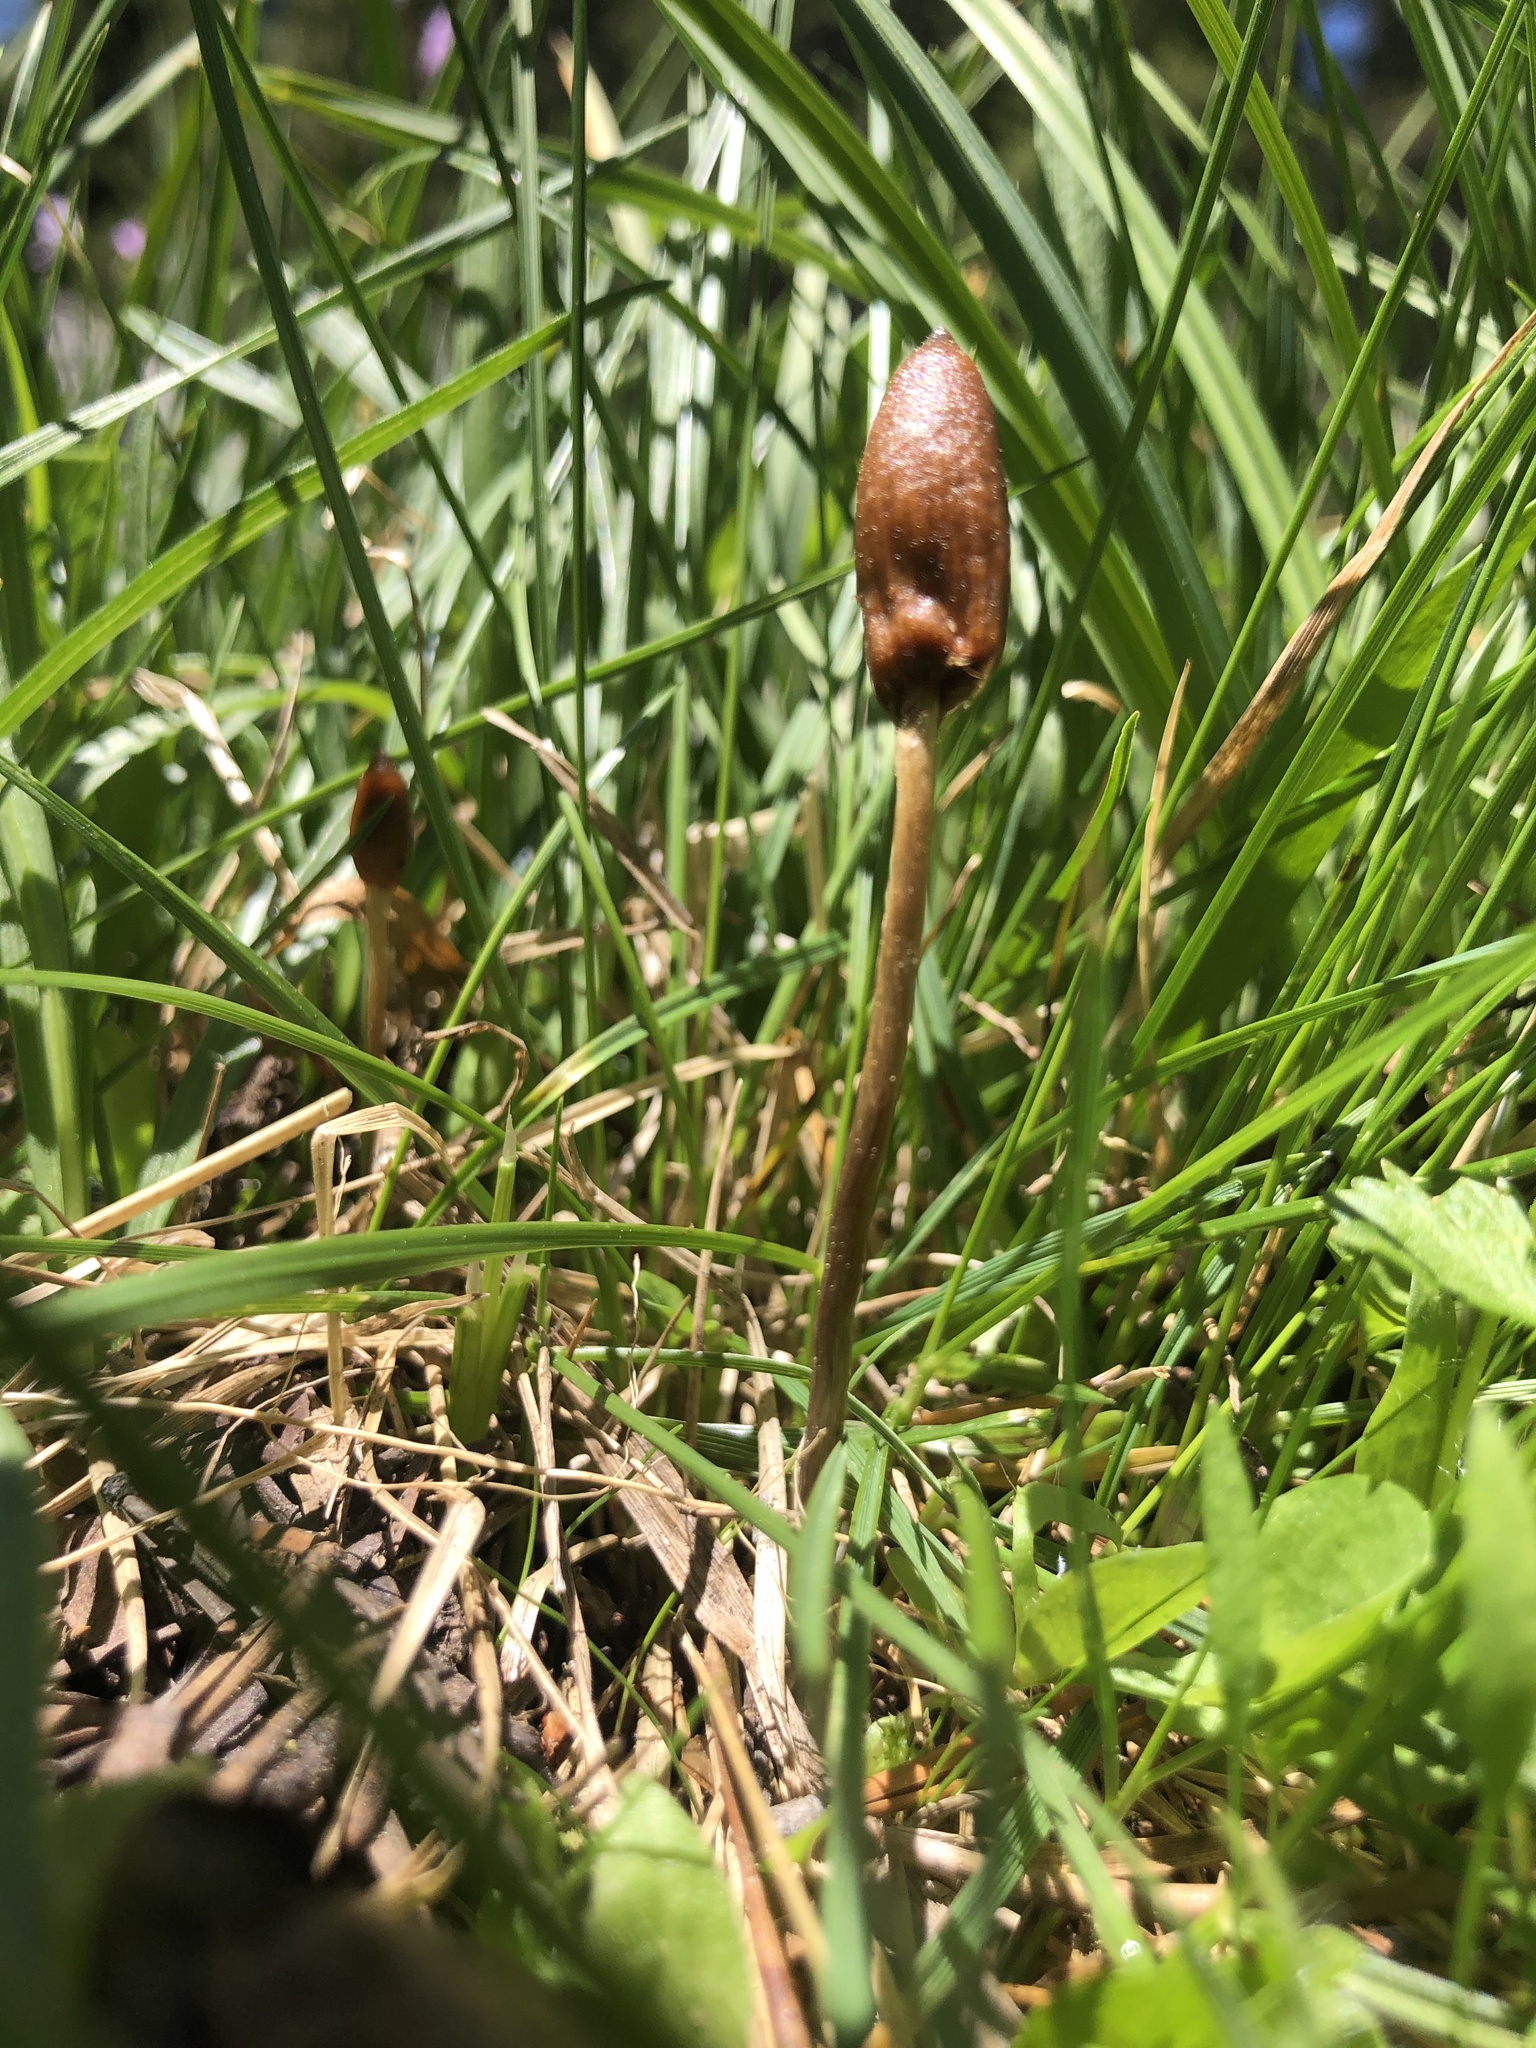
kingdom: Fungi
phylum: Basidiomycota
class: Agaricomycetes
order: Agaricales
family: Bolbitiaceae
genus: Galeropsis
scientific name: Galeropsis polytrichoides
